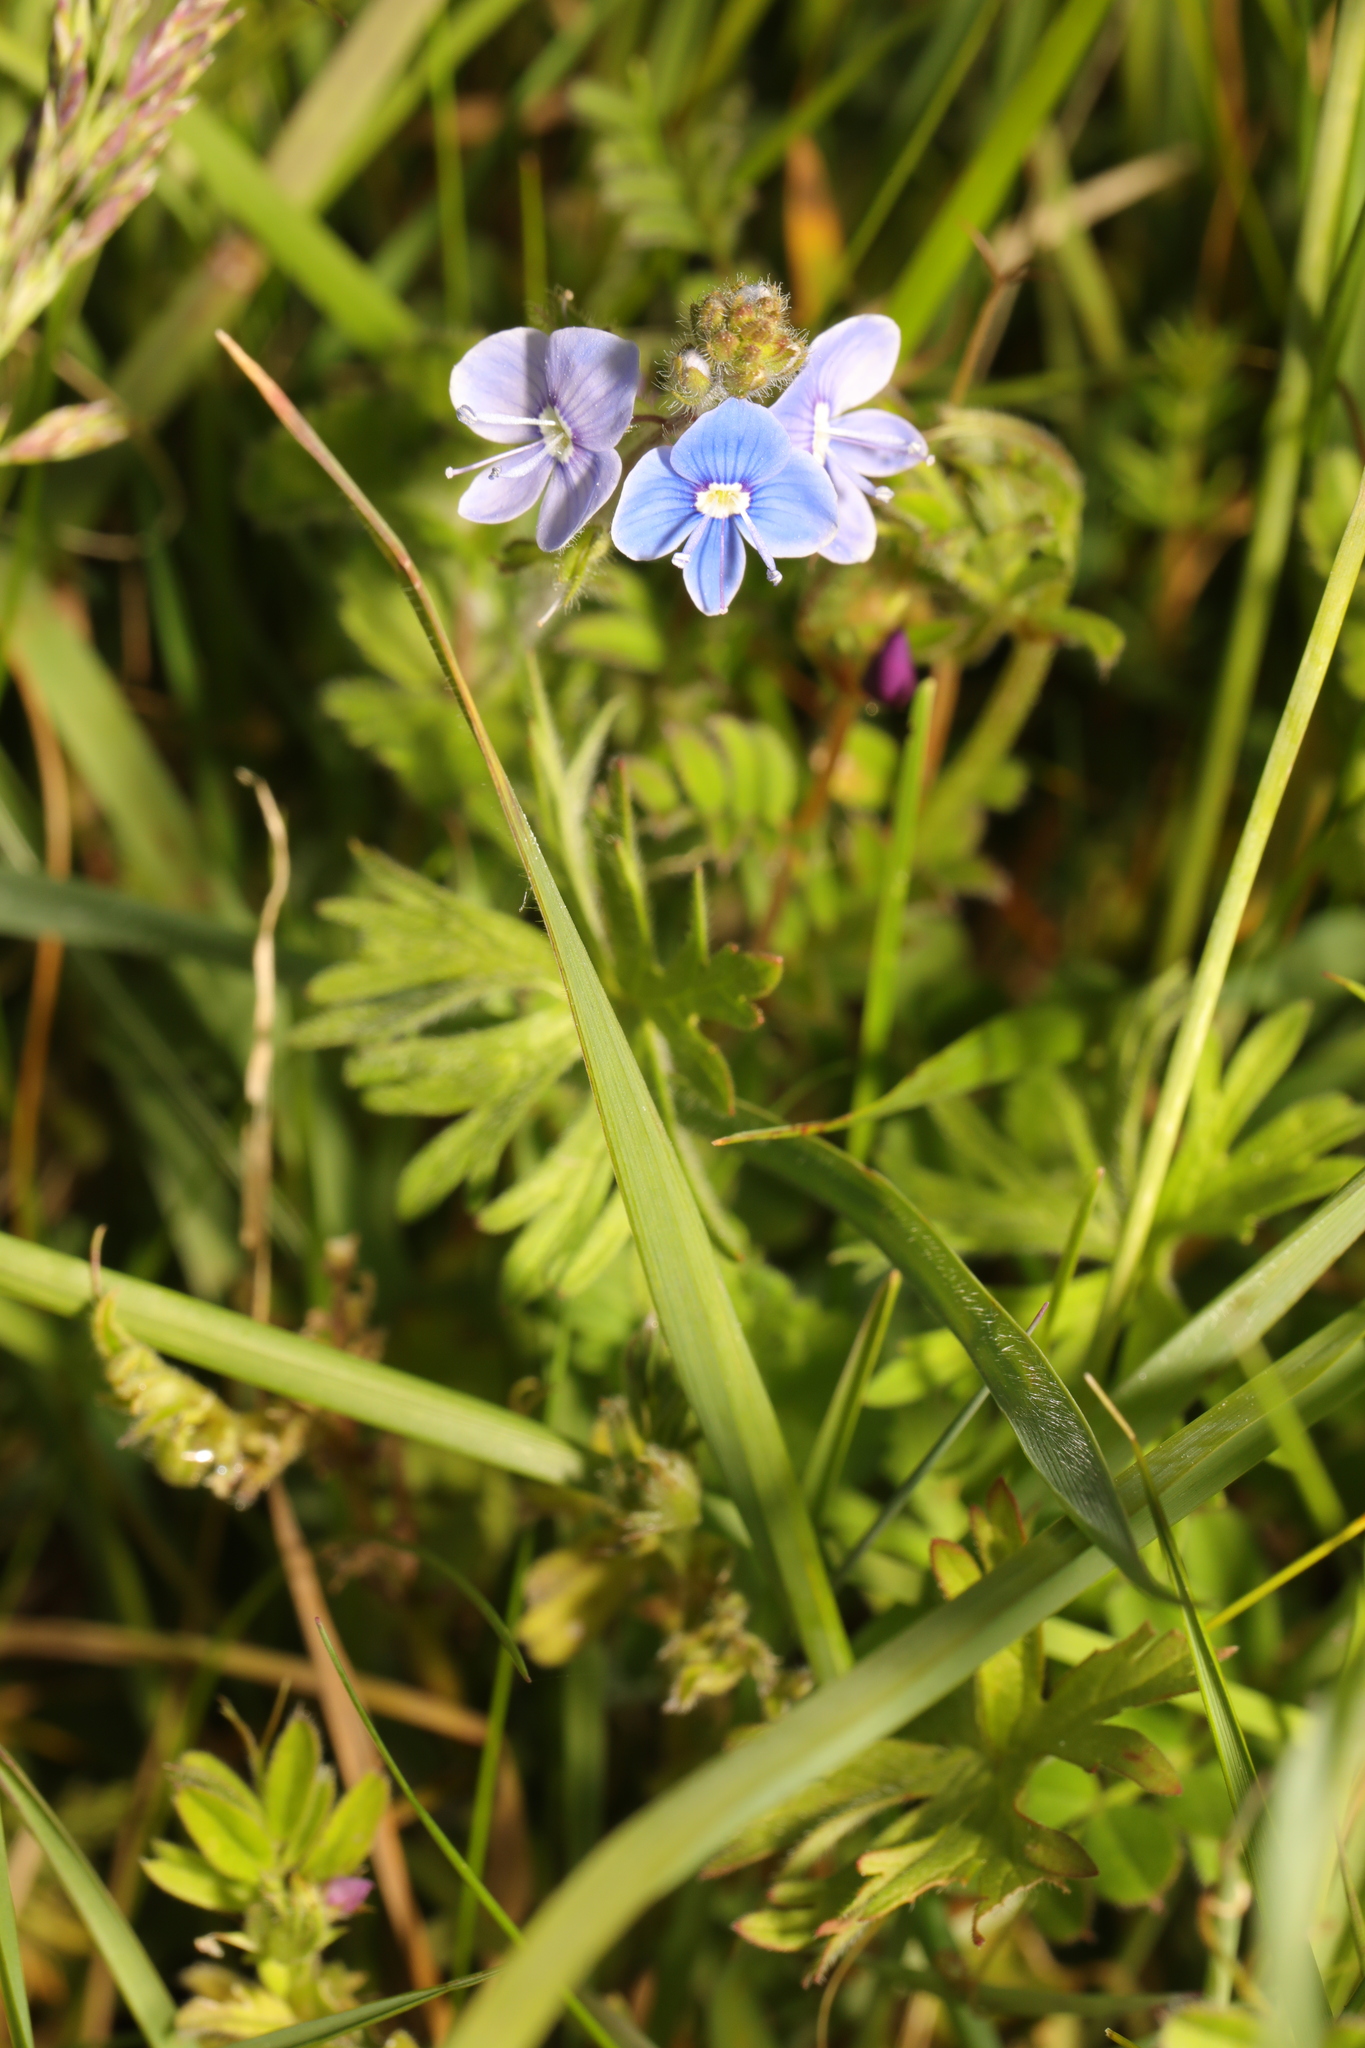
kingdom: Plantae
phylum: Tracheophyta
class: Magnoliopsida
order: Lamiales
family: Plantaginaceae
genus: Veronica
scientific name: Veronica chamaedrys
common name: Germander speedwell
